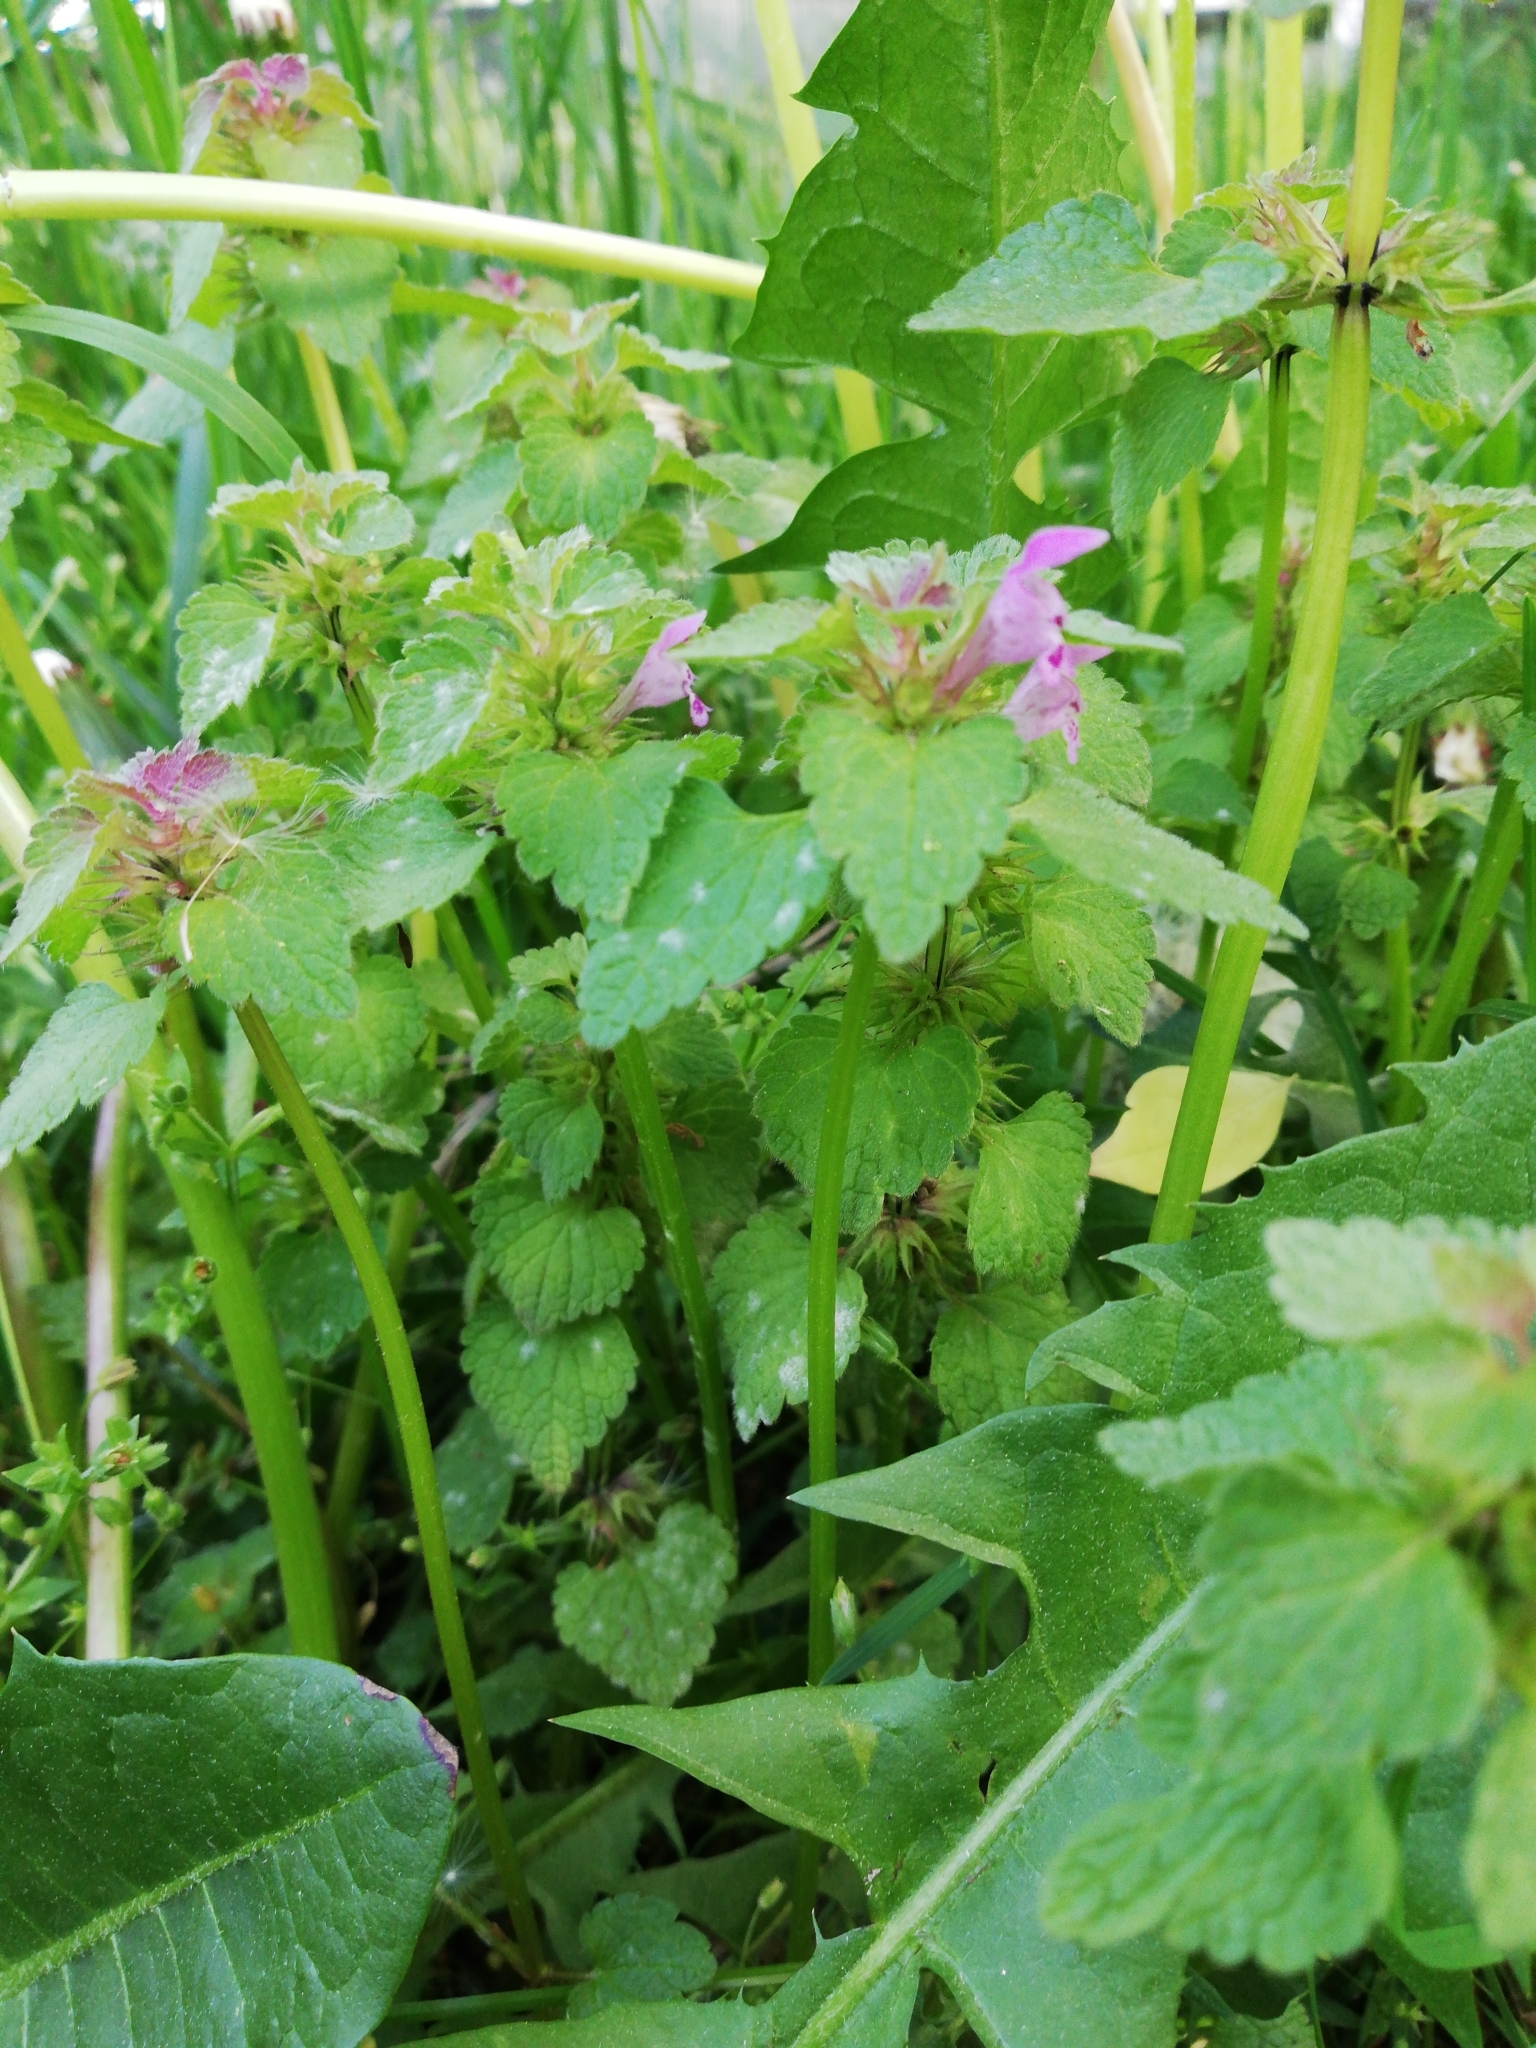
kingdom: Plantae
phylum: Tracheophyta
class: Magnoliopsida
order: Lamiales
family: Lamiaceae
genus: Lamium
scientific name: Lamium purpureum
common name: Red dead-nettle
